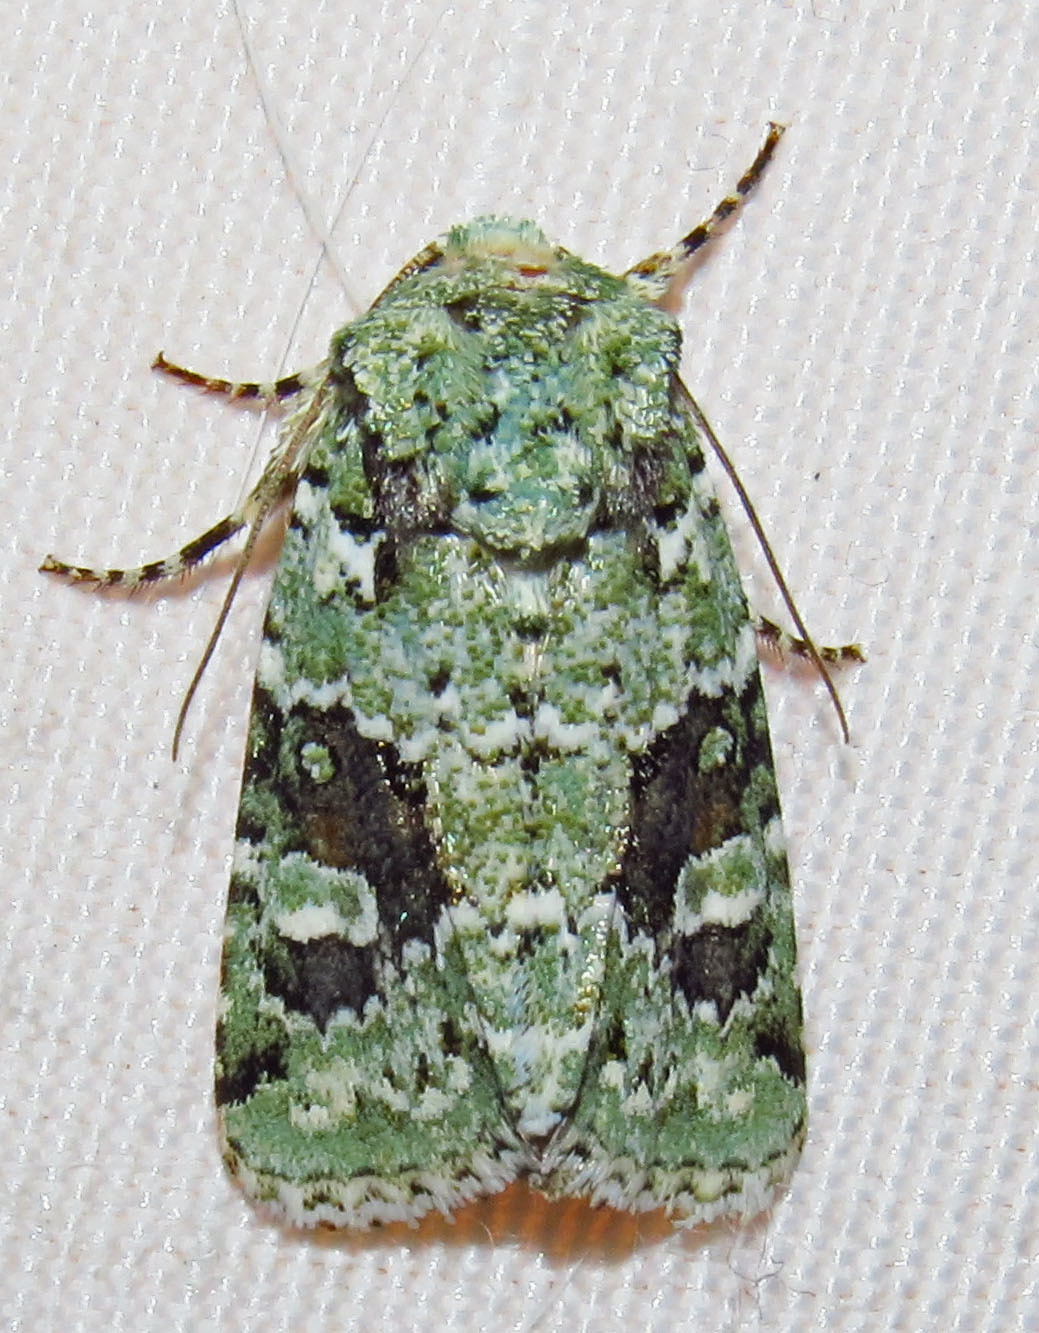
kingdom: Animalia
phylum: Arthropoda
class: Insecta
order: Lepidoptera
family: Noctuidae
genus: Lacinipolia
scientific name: Lacinipolia laudabilis
